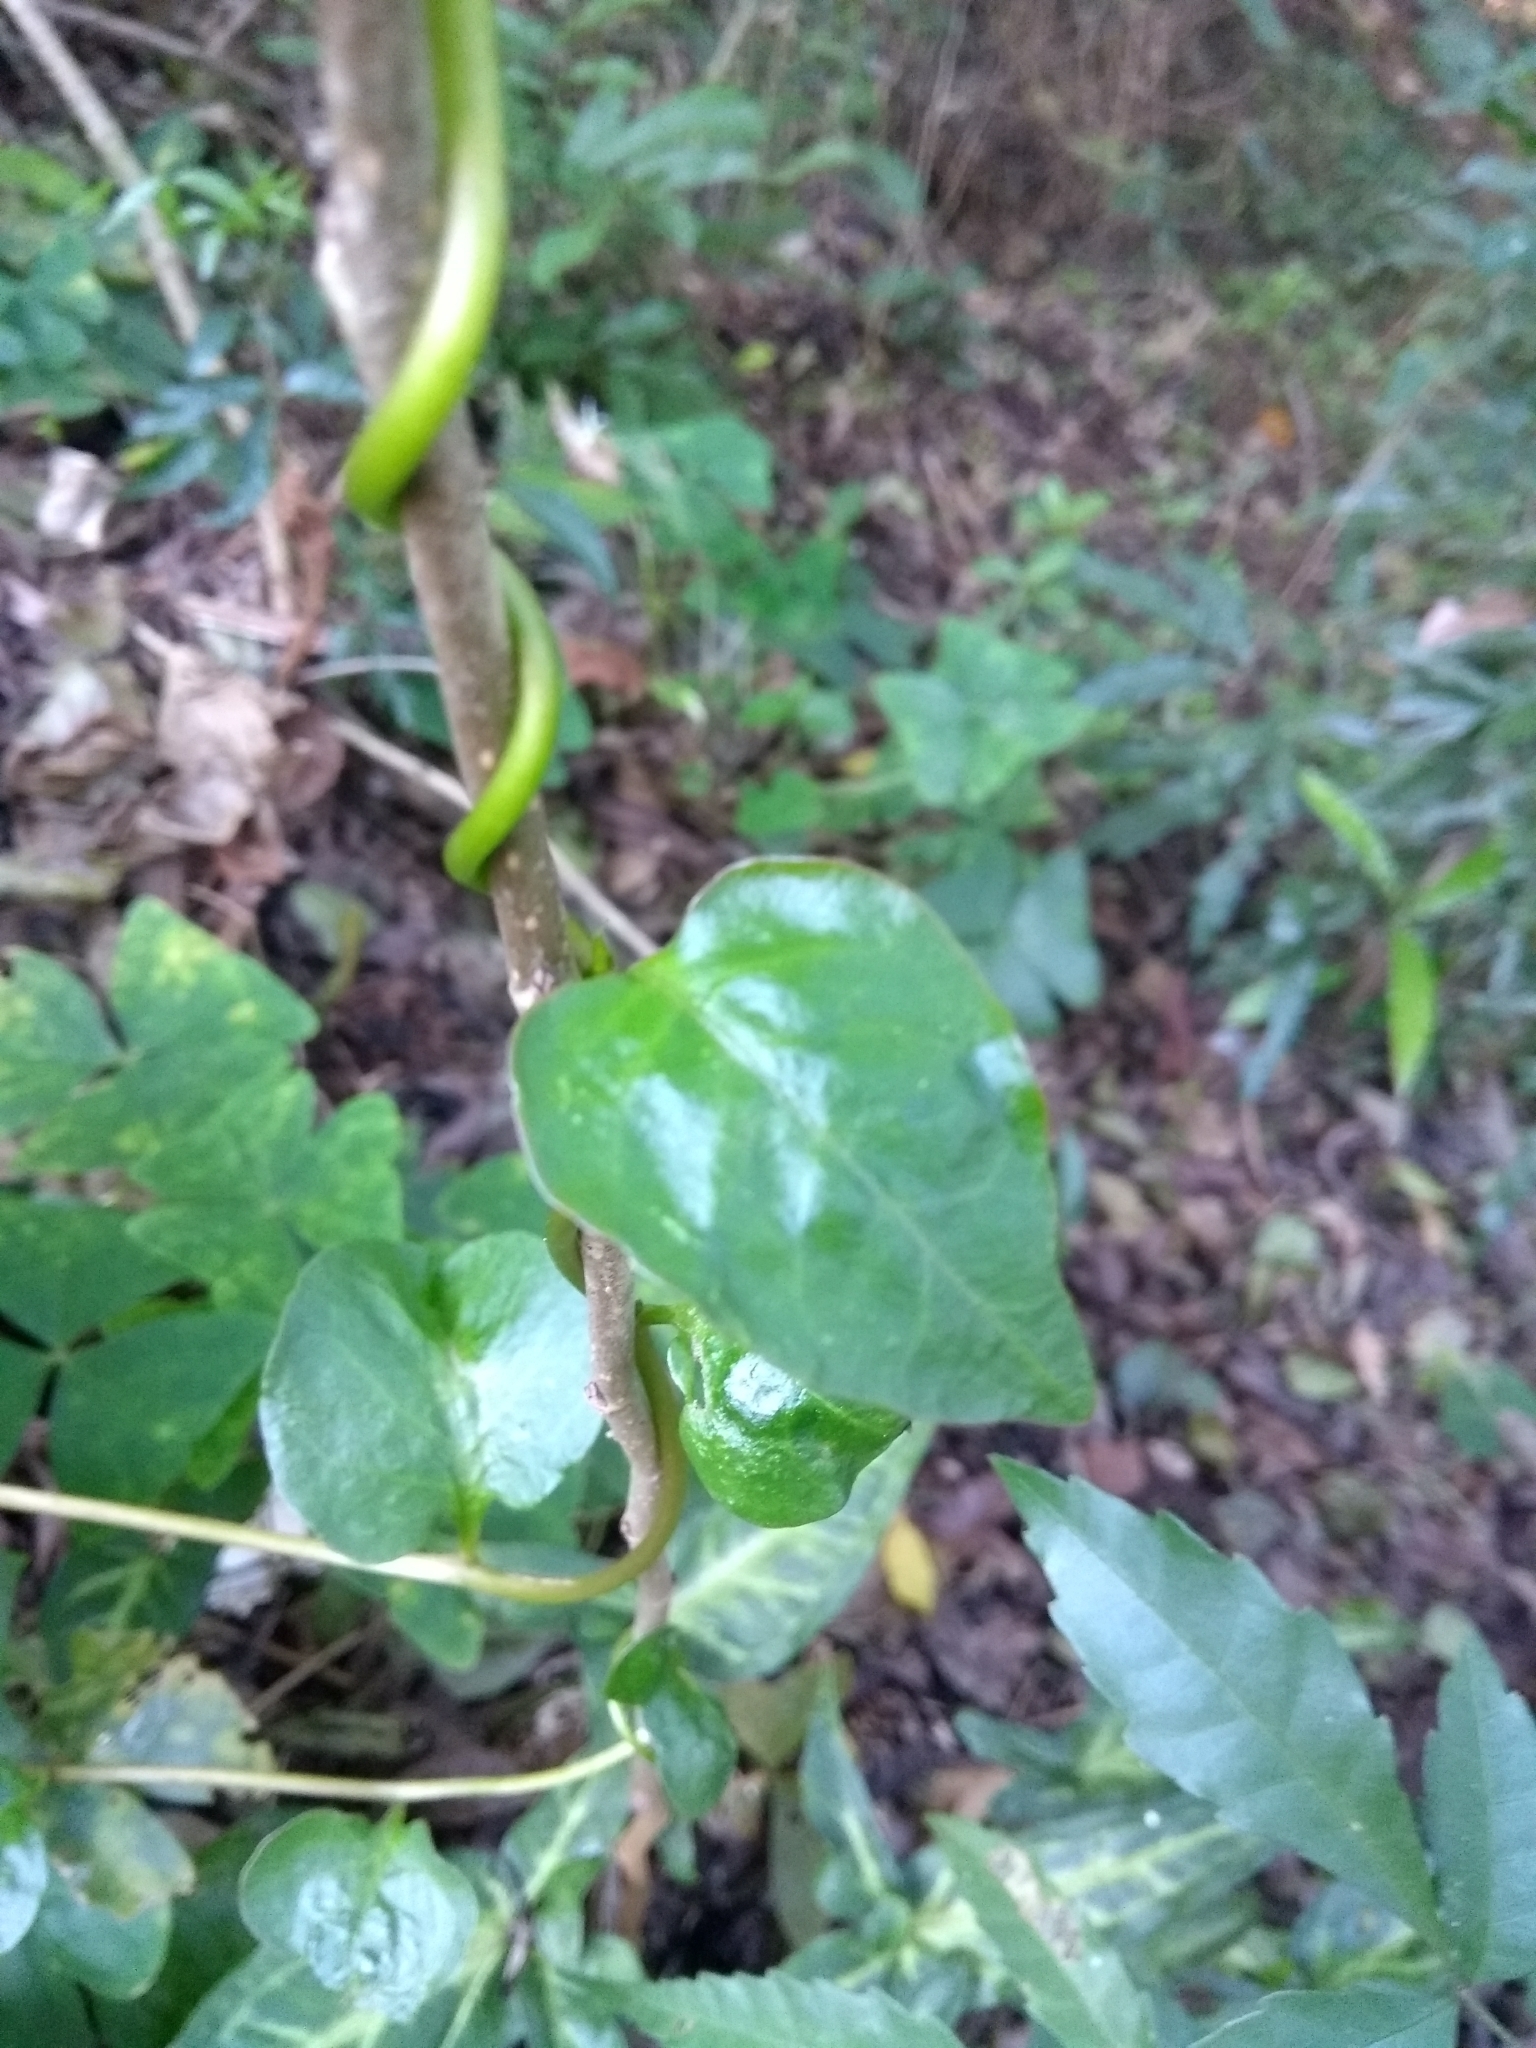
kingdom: Plantae
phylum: Tracheophyta
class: Magnoliopsida
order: Caryophyllales
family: Basellaceae
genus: Anredera
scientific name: Anredera cordifolia
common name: Heartleaf madeiravine
